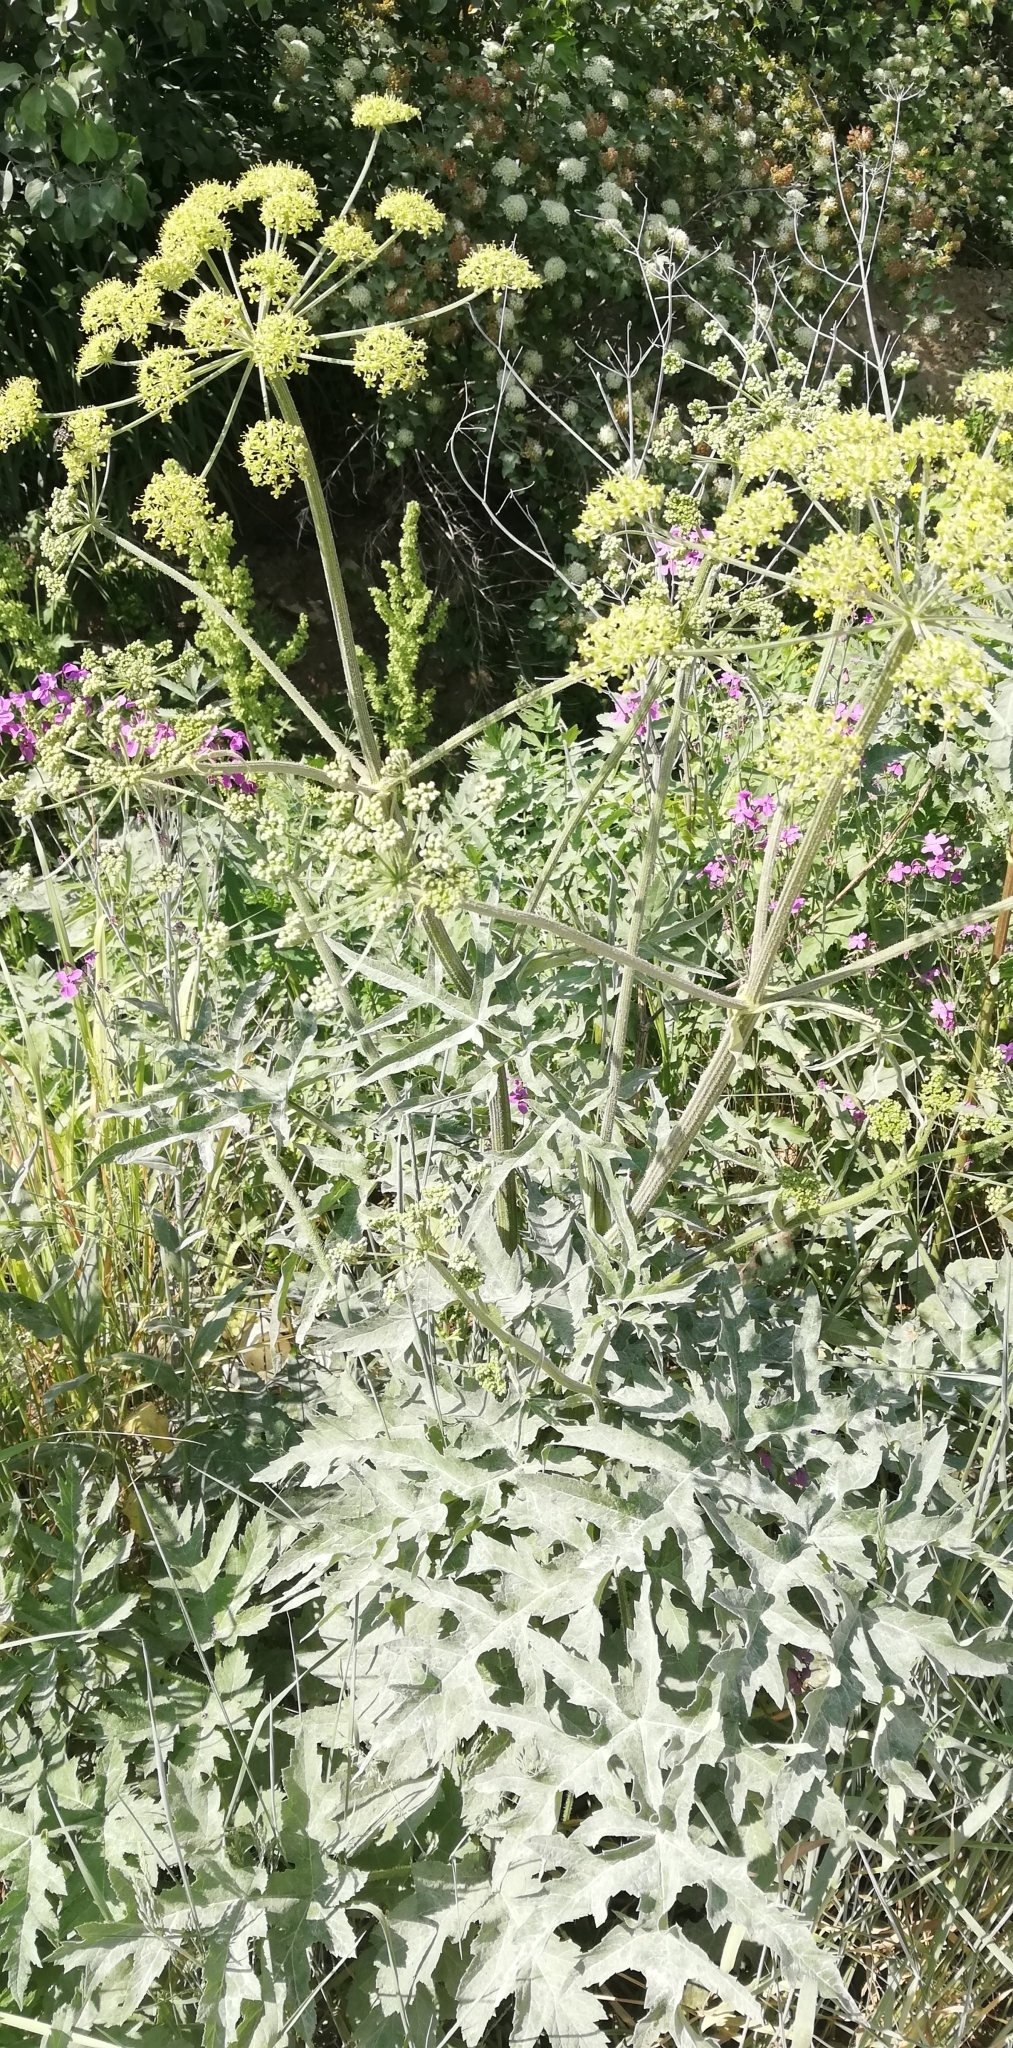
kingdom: Plantae
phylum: Tracheophyta
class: Magnoliopsida
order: Apiales
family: Apiaceae
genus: Heracleum
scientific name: Heracleum sphondylium
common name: Hogweed
